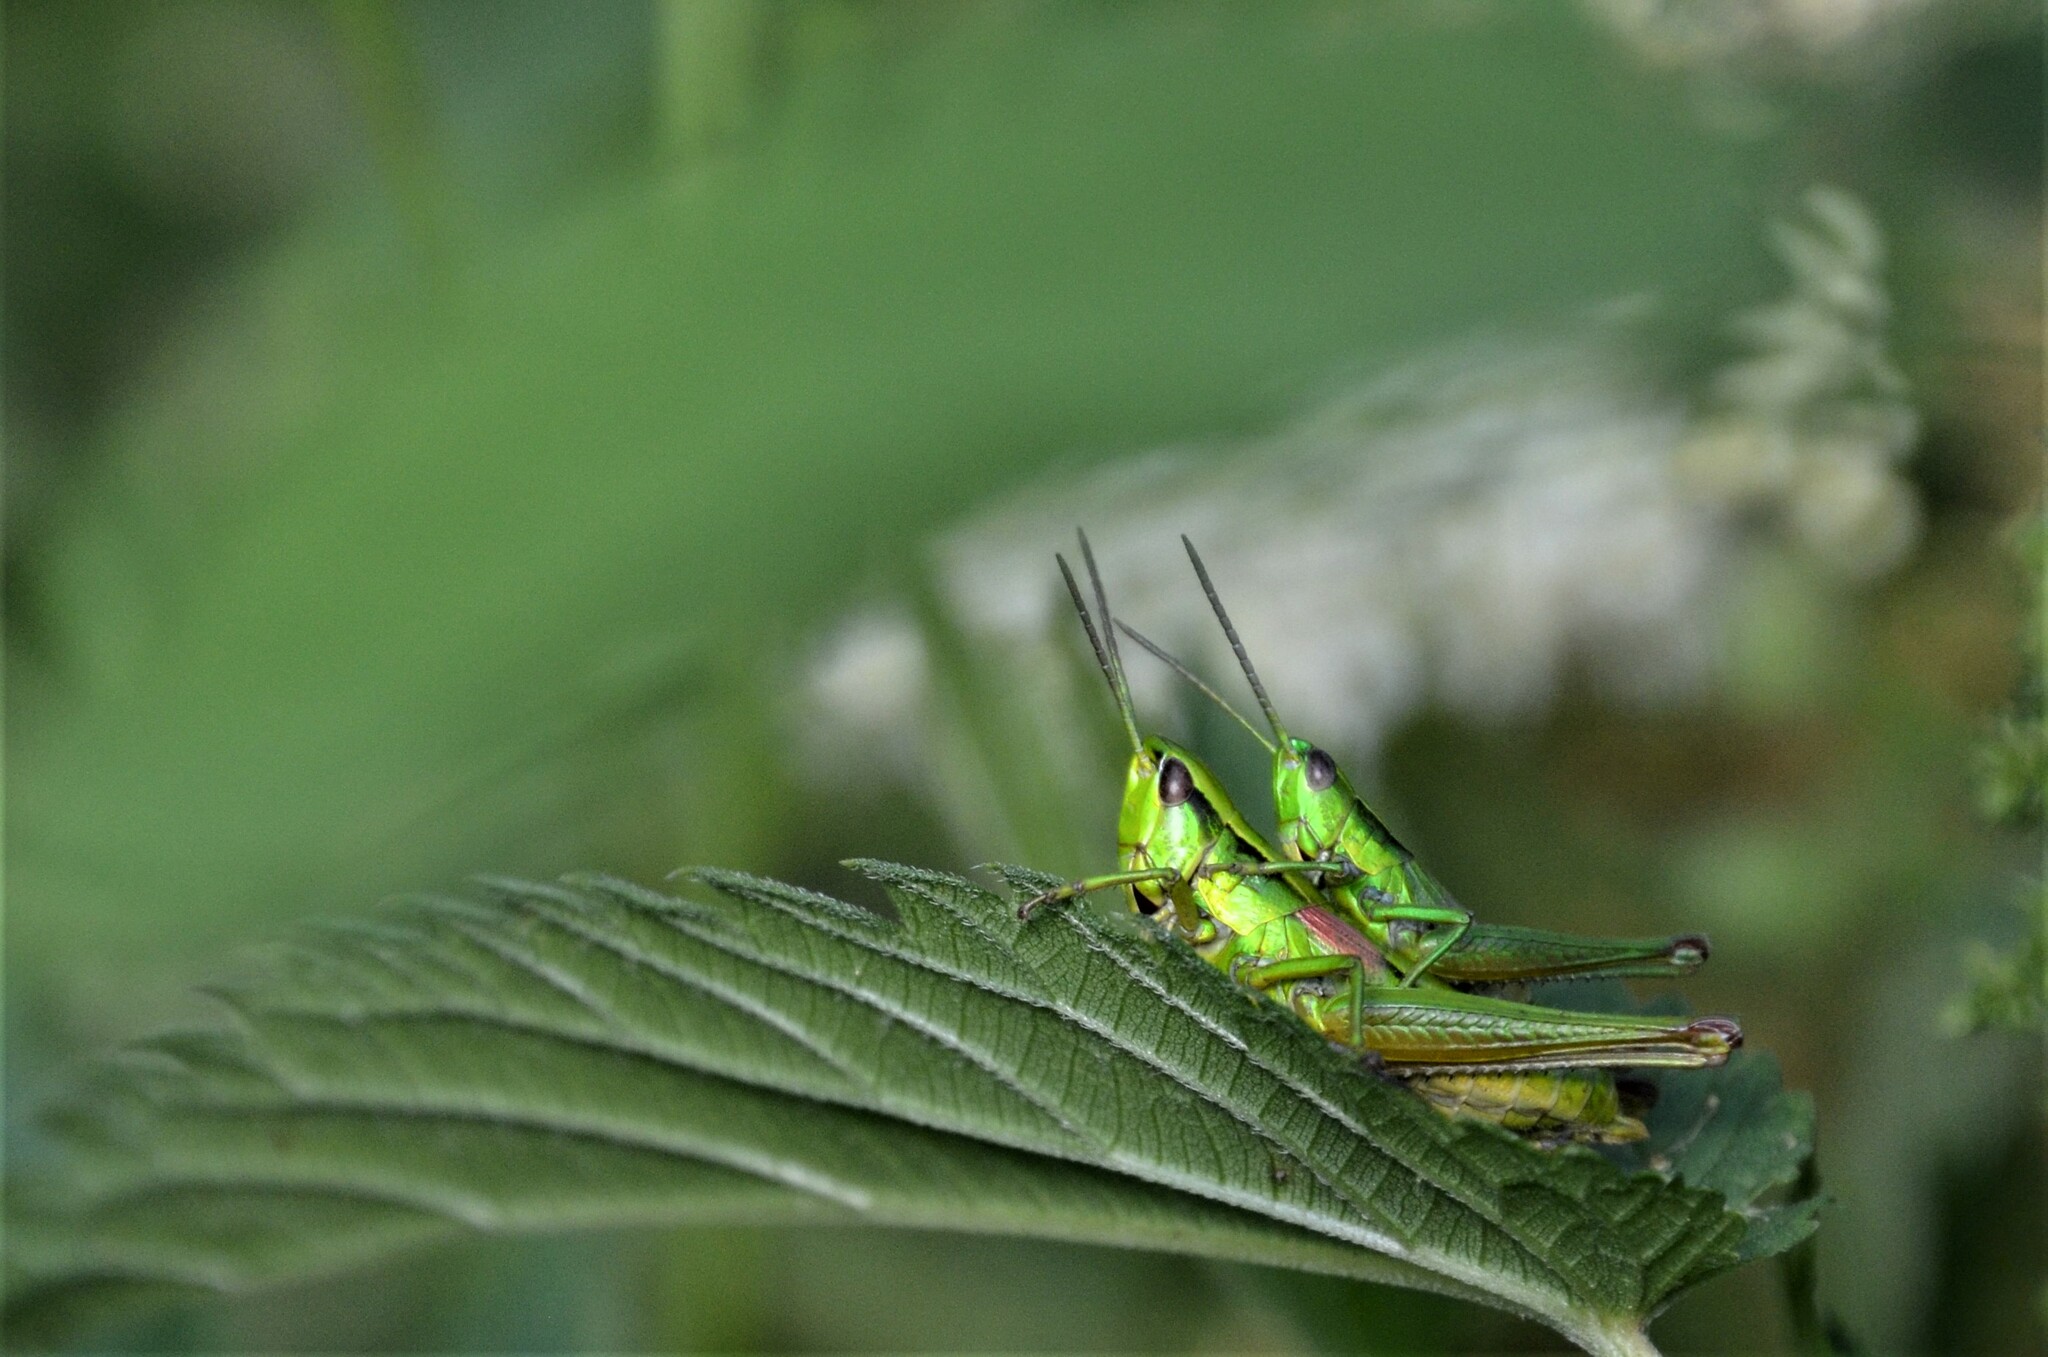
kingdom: Animalia
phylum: Arthropoda
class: Insecta
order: Orthoptera
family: Acrididae
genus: Euthystira
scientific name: Euthystira brachyptera
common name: Small gold grasshopper
